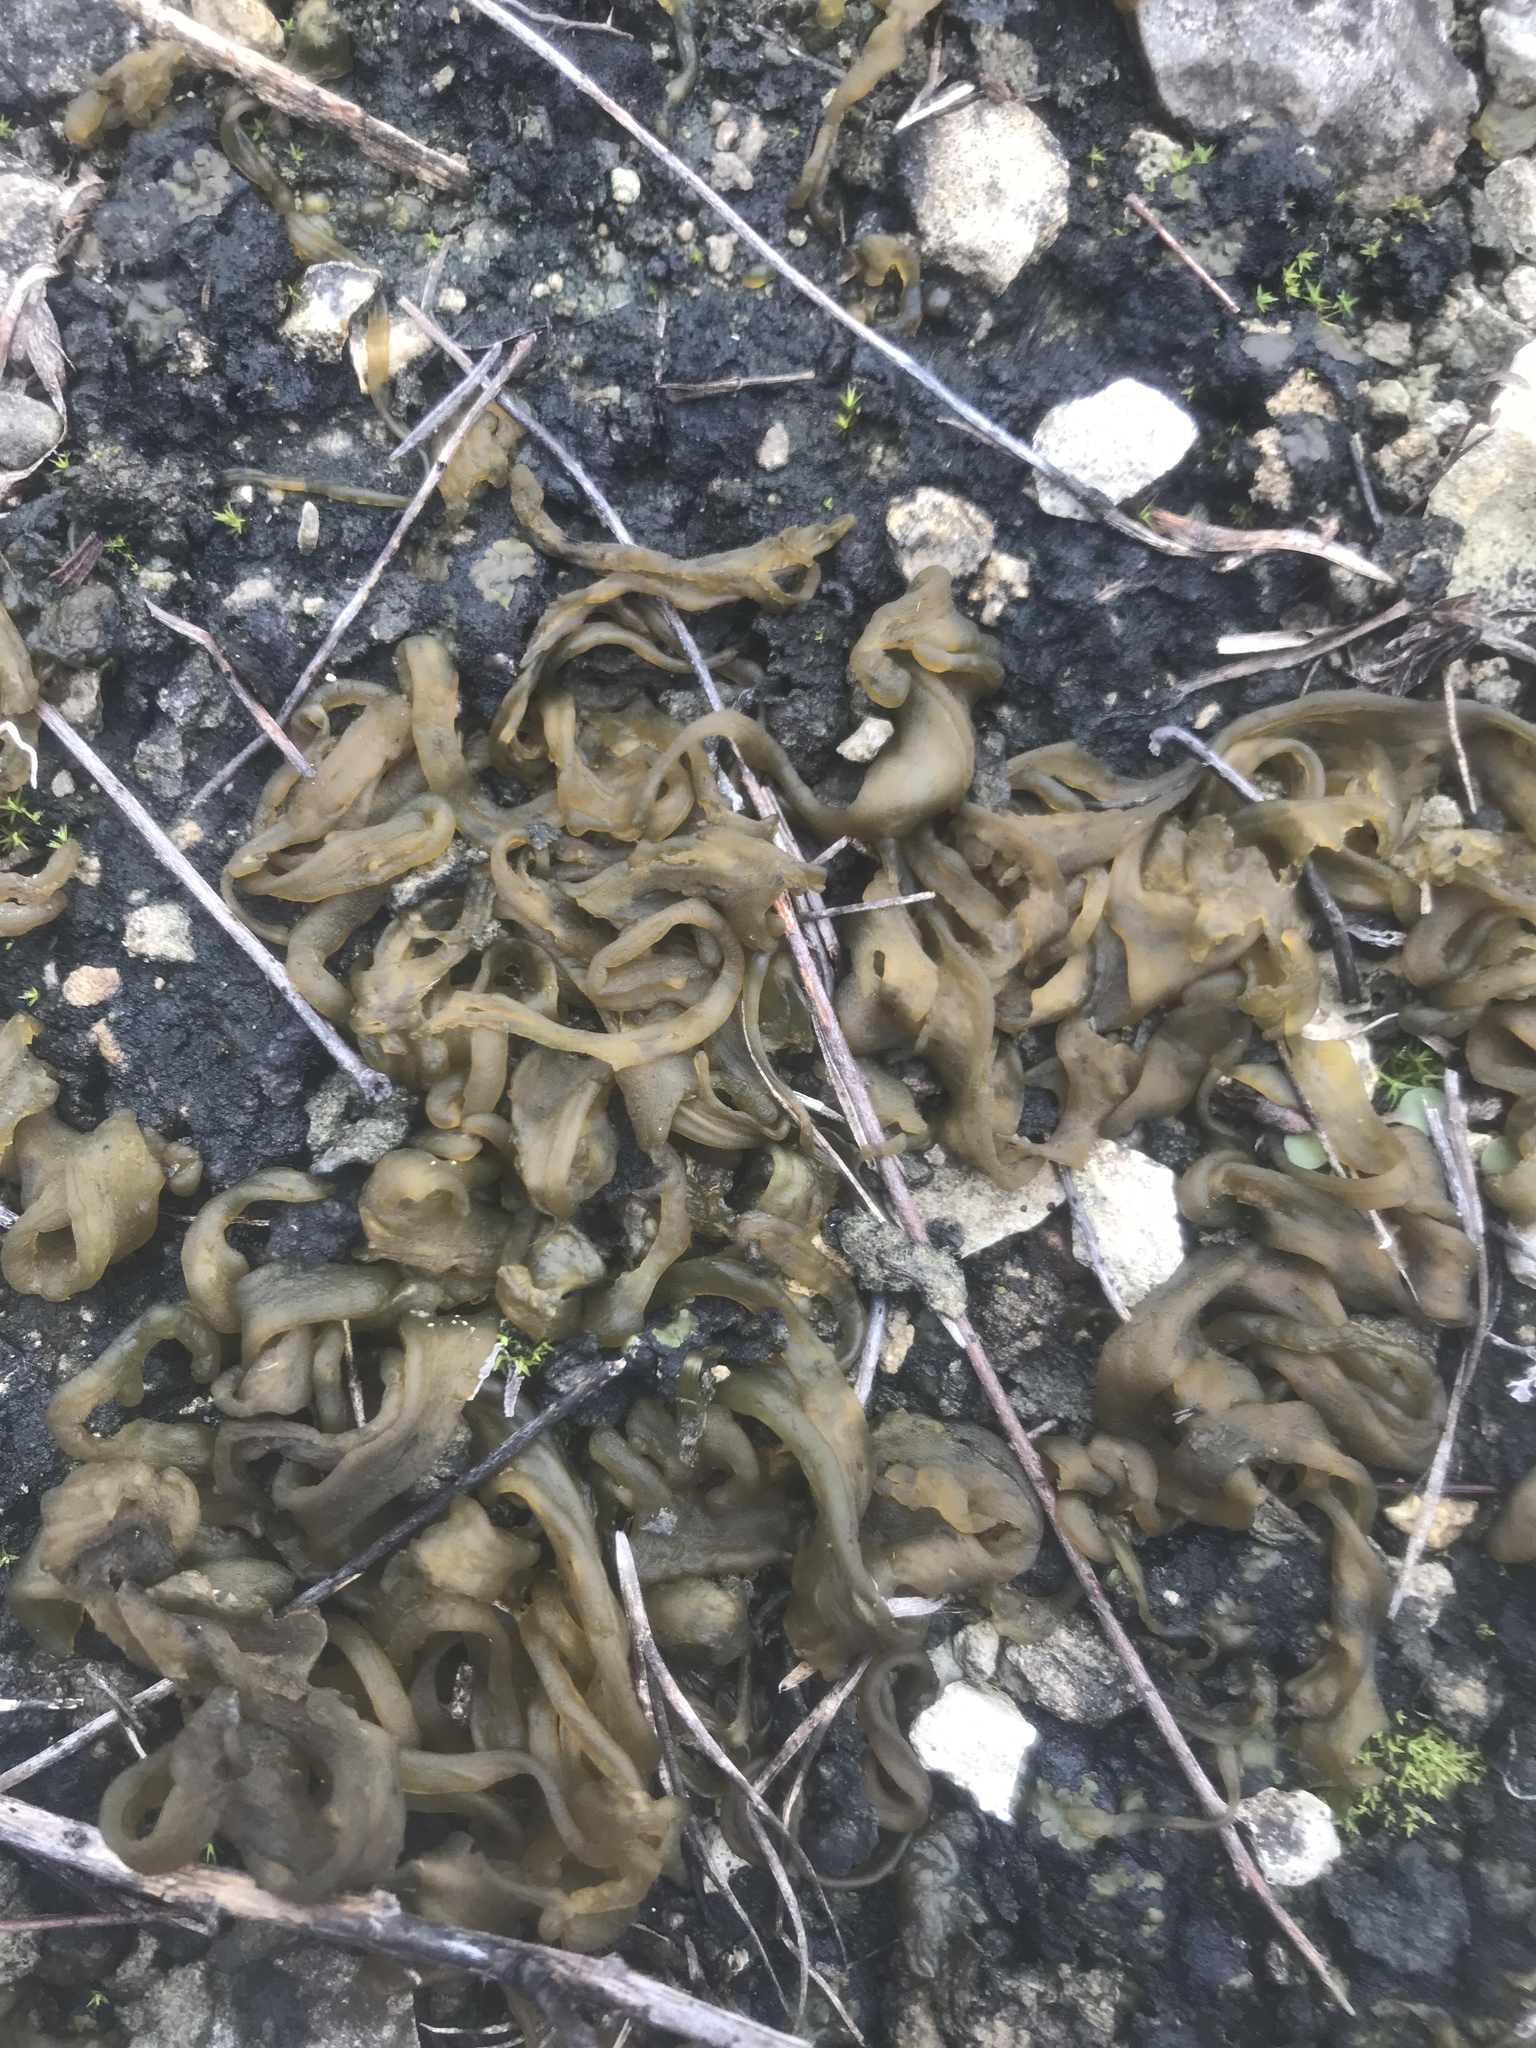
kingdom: Bacteria
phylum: Cyanobacteria
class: Cyanobacteriia
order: Cyanobacteriales
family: Nostocaceae
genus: Nostoc
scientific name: Nostoc commune
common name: Star jelly
